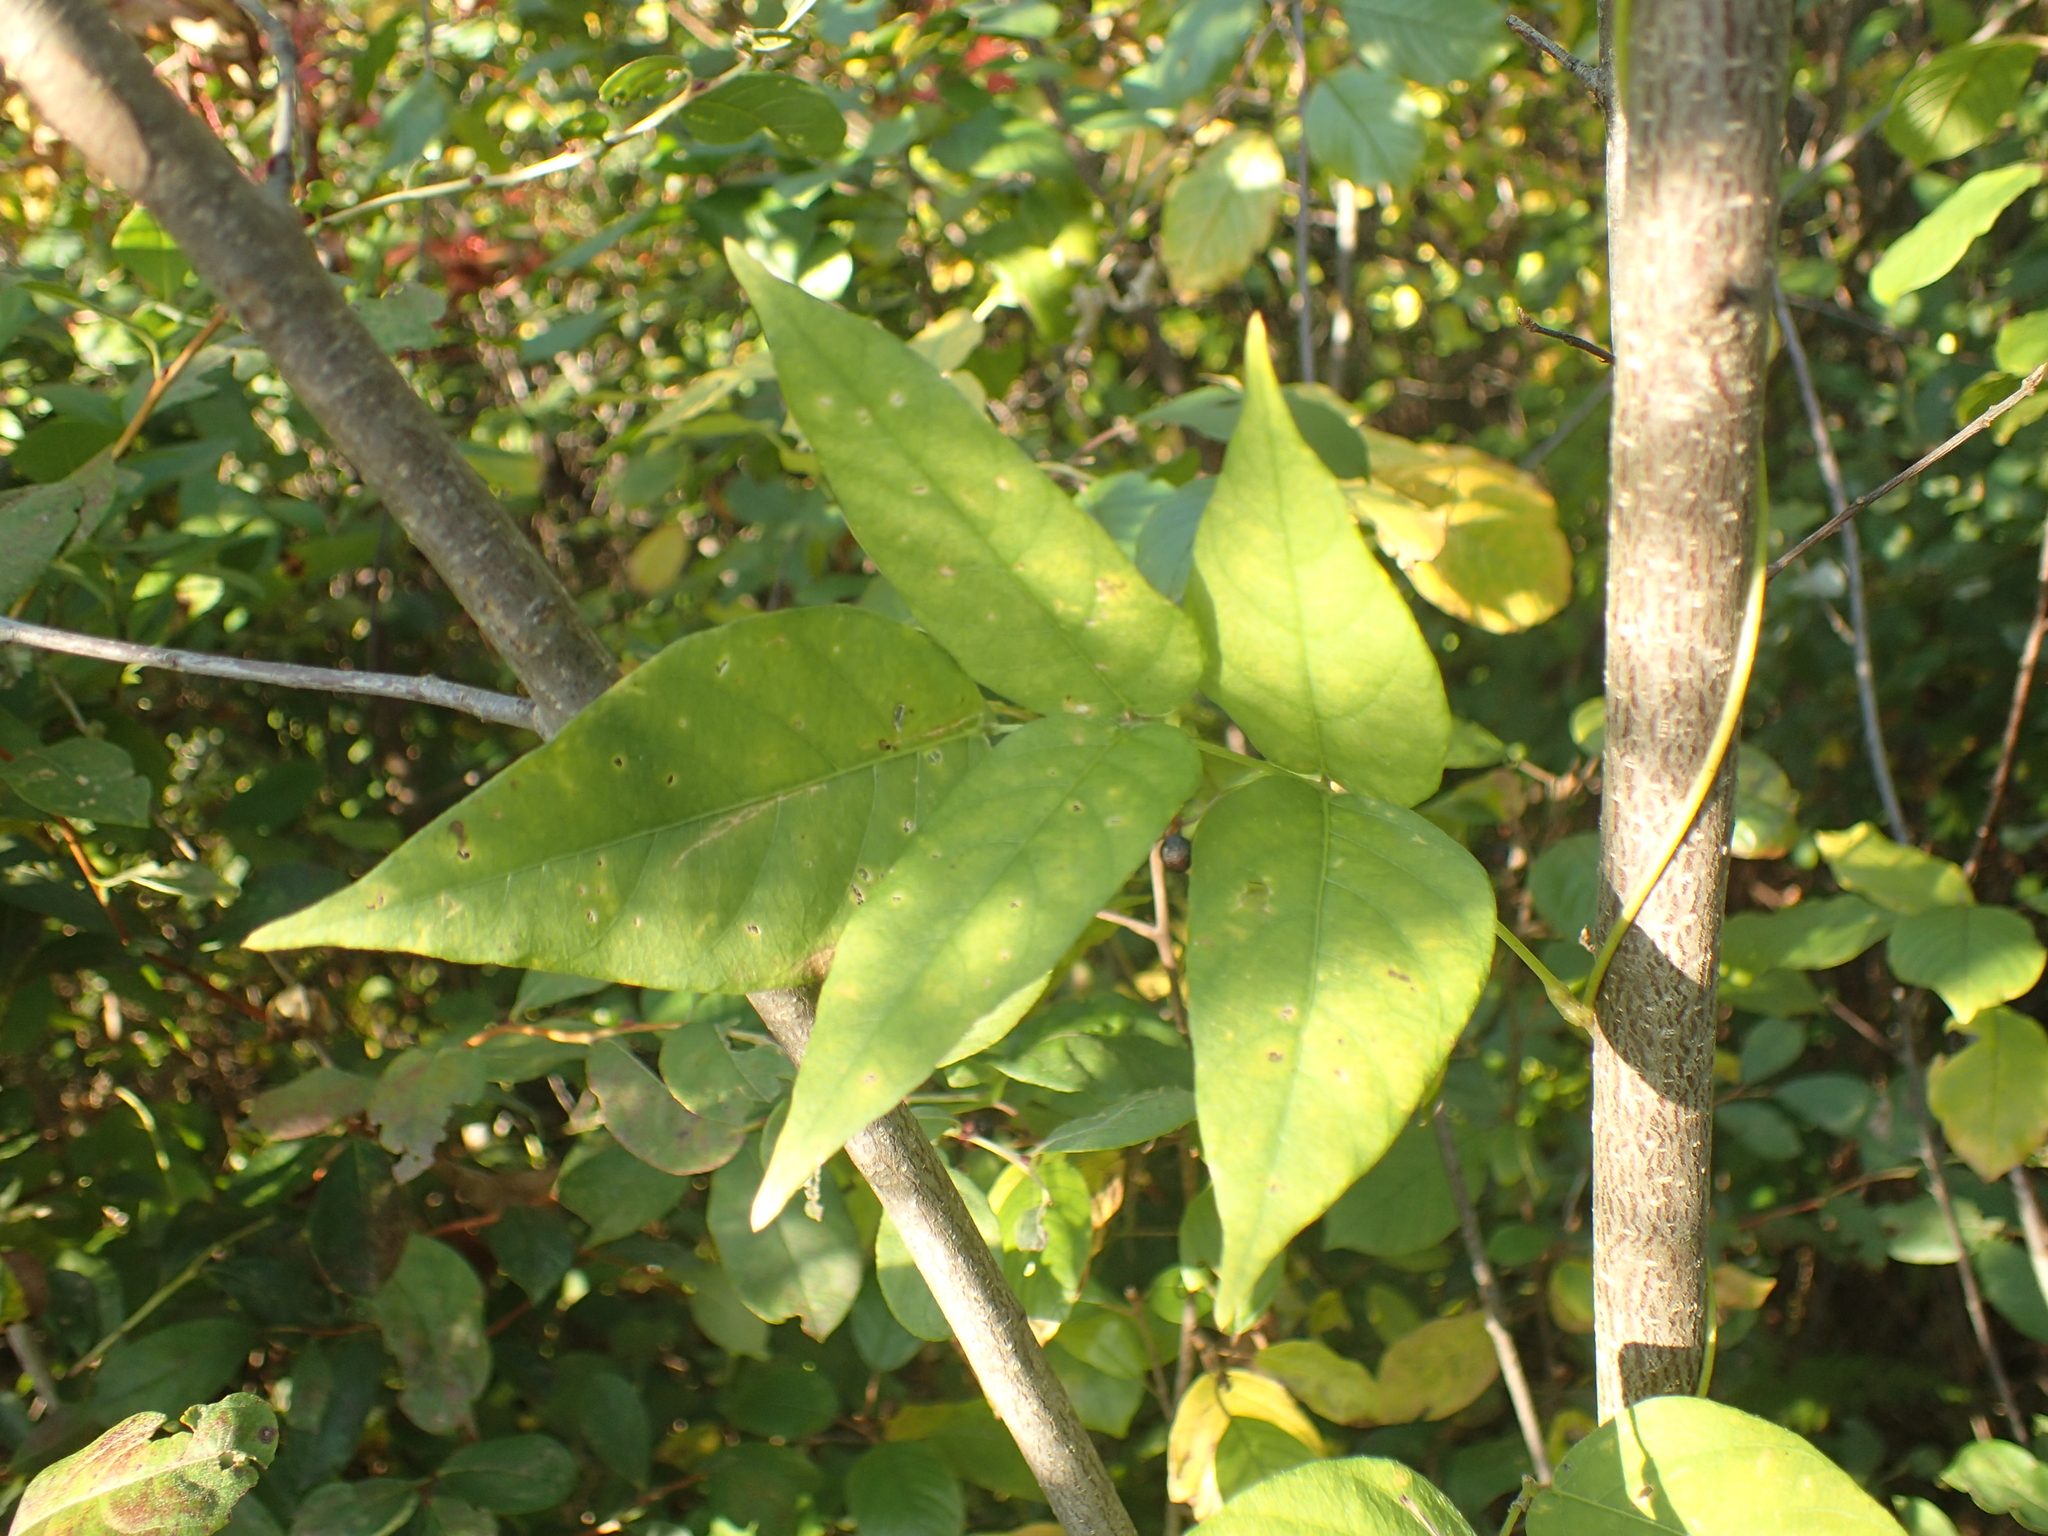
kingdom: Plantae
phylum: Tracheophyta
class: Magnoliopsida
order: Fabales
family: Fabaceae
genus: Apios
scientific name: Apios americana
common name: American potato-bean
